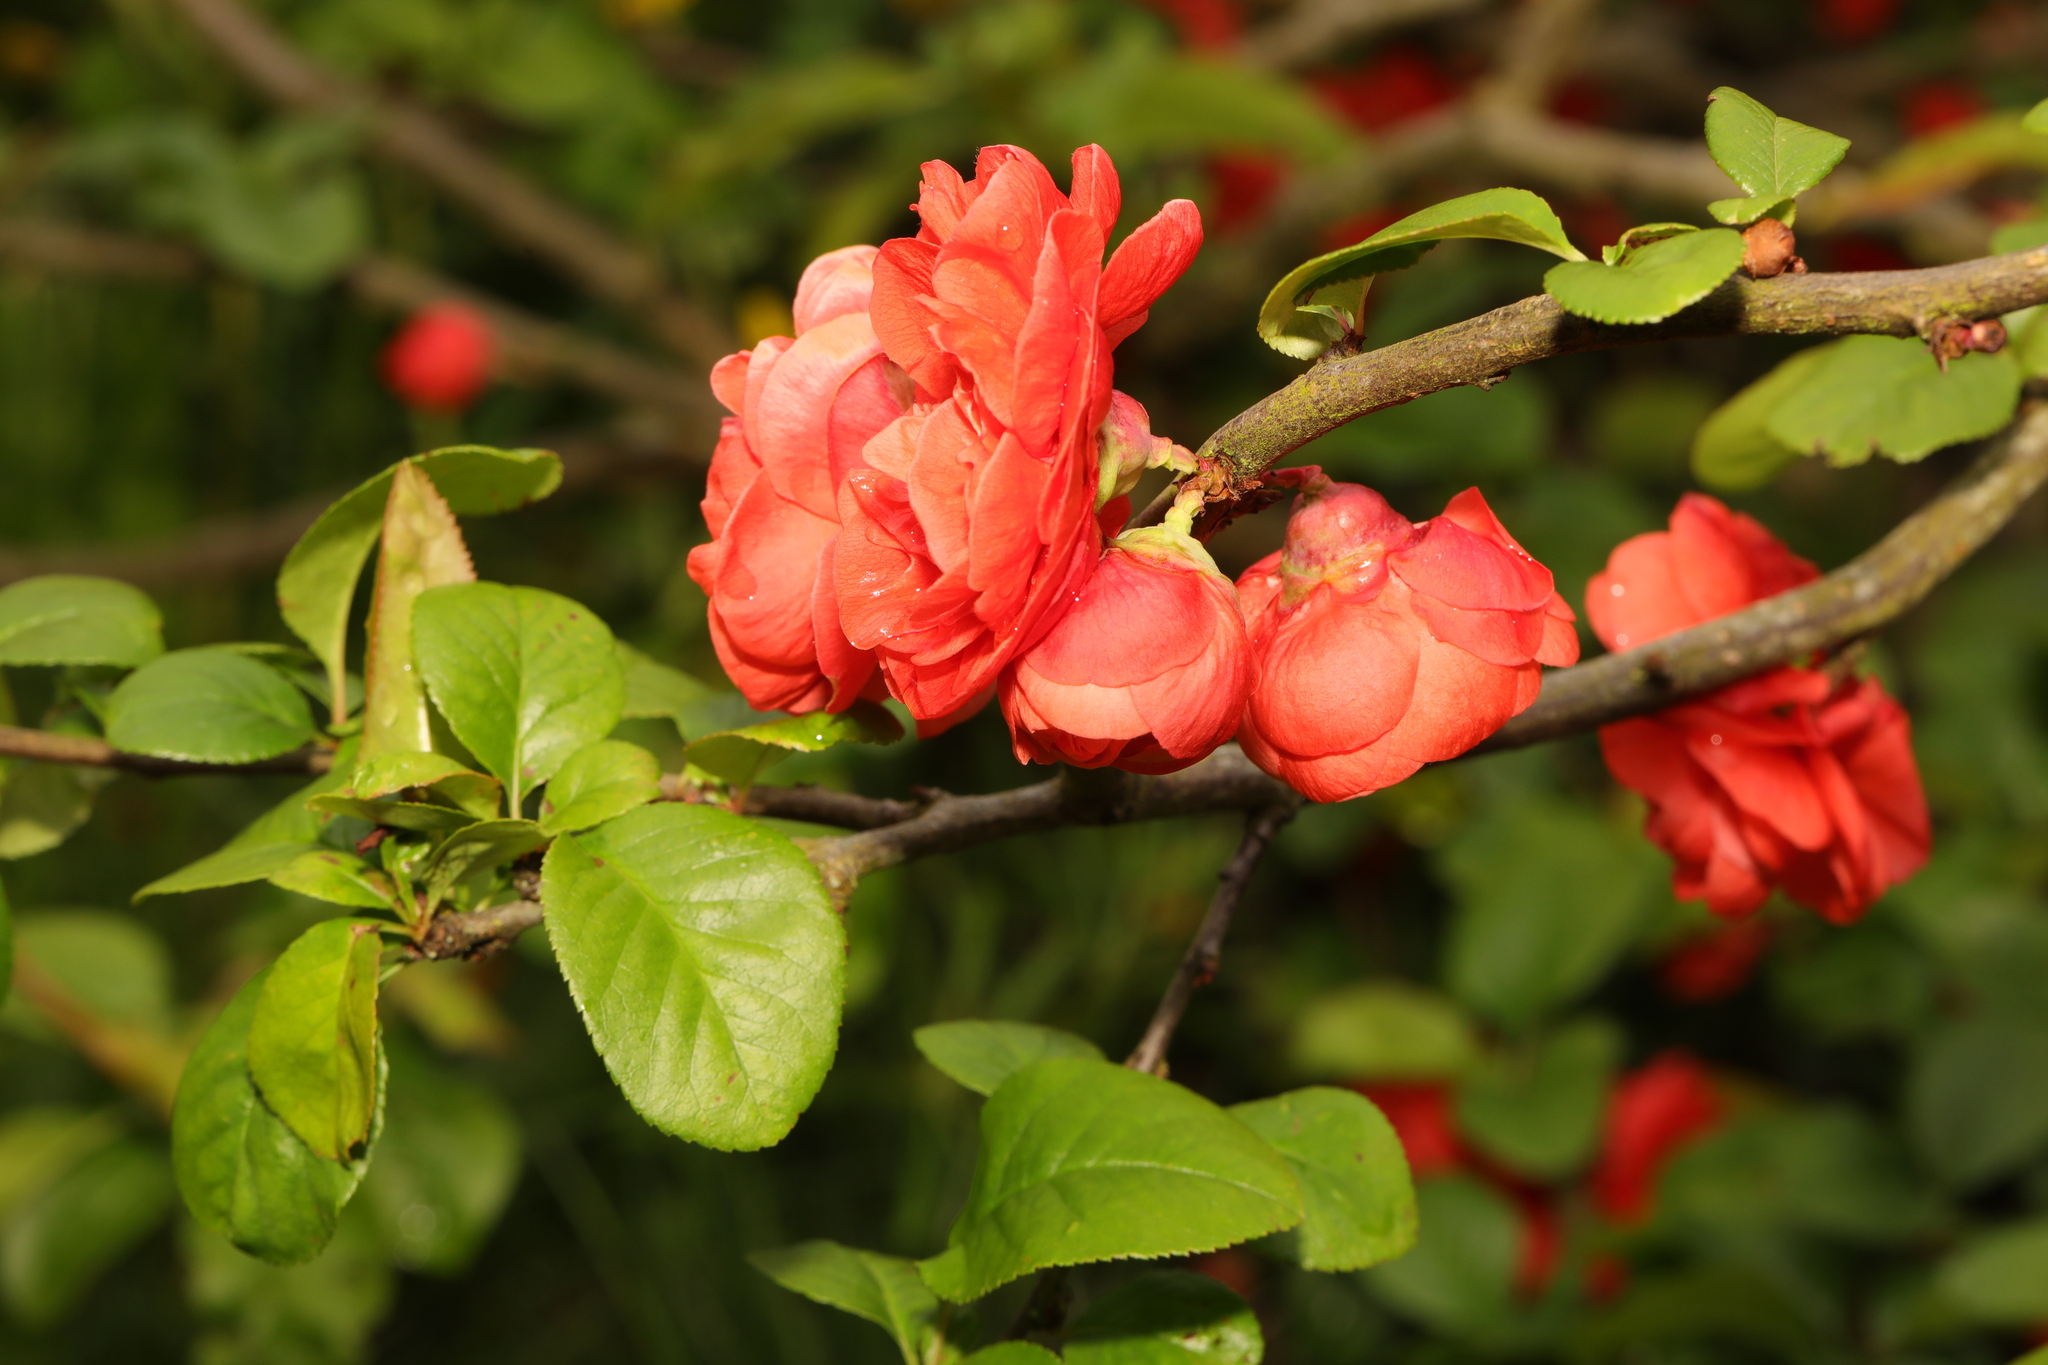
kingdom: Plantae
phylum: Tracheophyta
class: Magnoliopsida
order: Rosales
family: Rosaceae
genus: Chaenomeles
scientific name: Chaenomeles japonica
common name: Japanese quince
